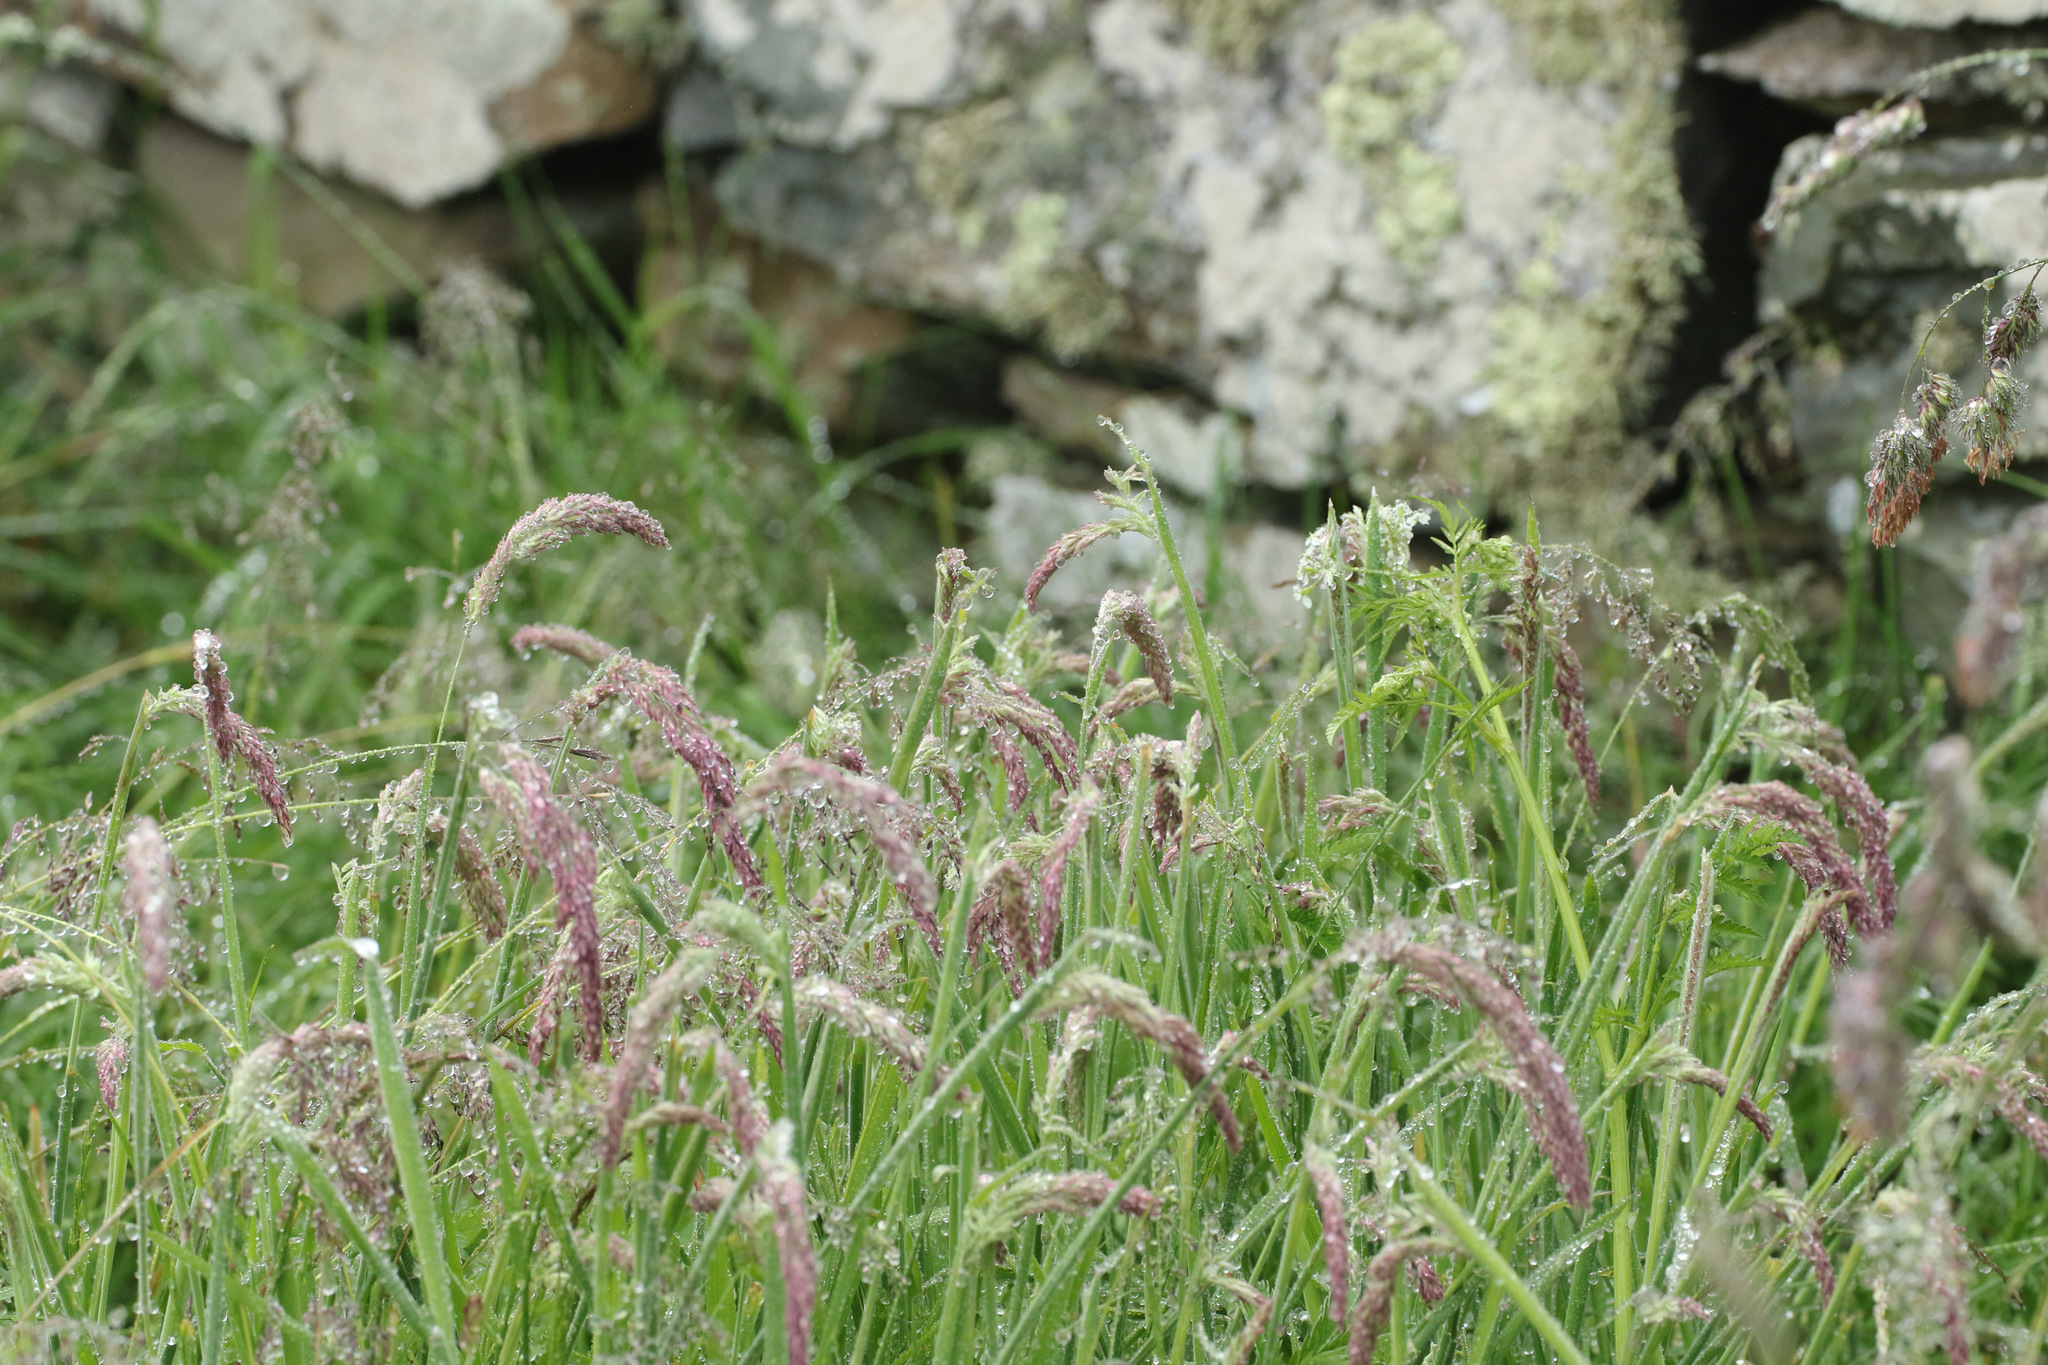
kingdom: Plantae
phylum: Tracheophyta
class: Liliopsida
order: Poales
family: Poaceae
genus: Holcus
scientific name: Holcus lanatus
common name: Yorkshire-fog
